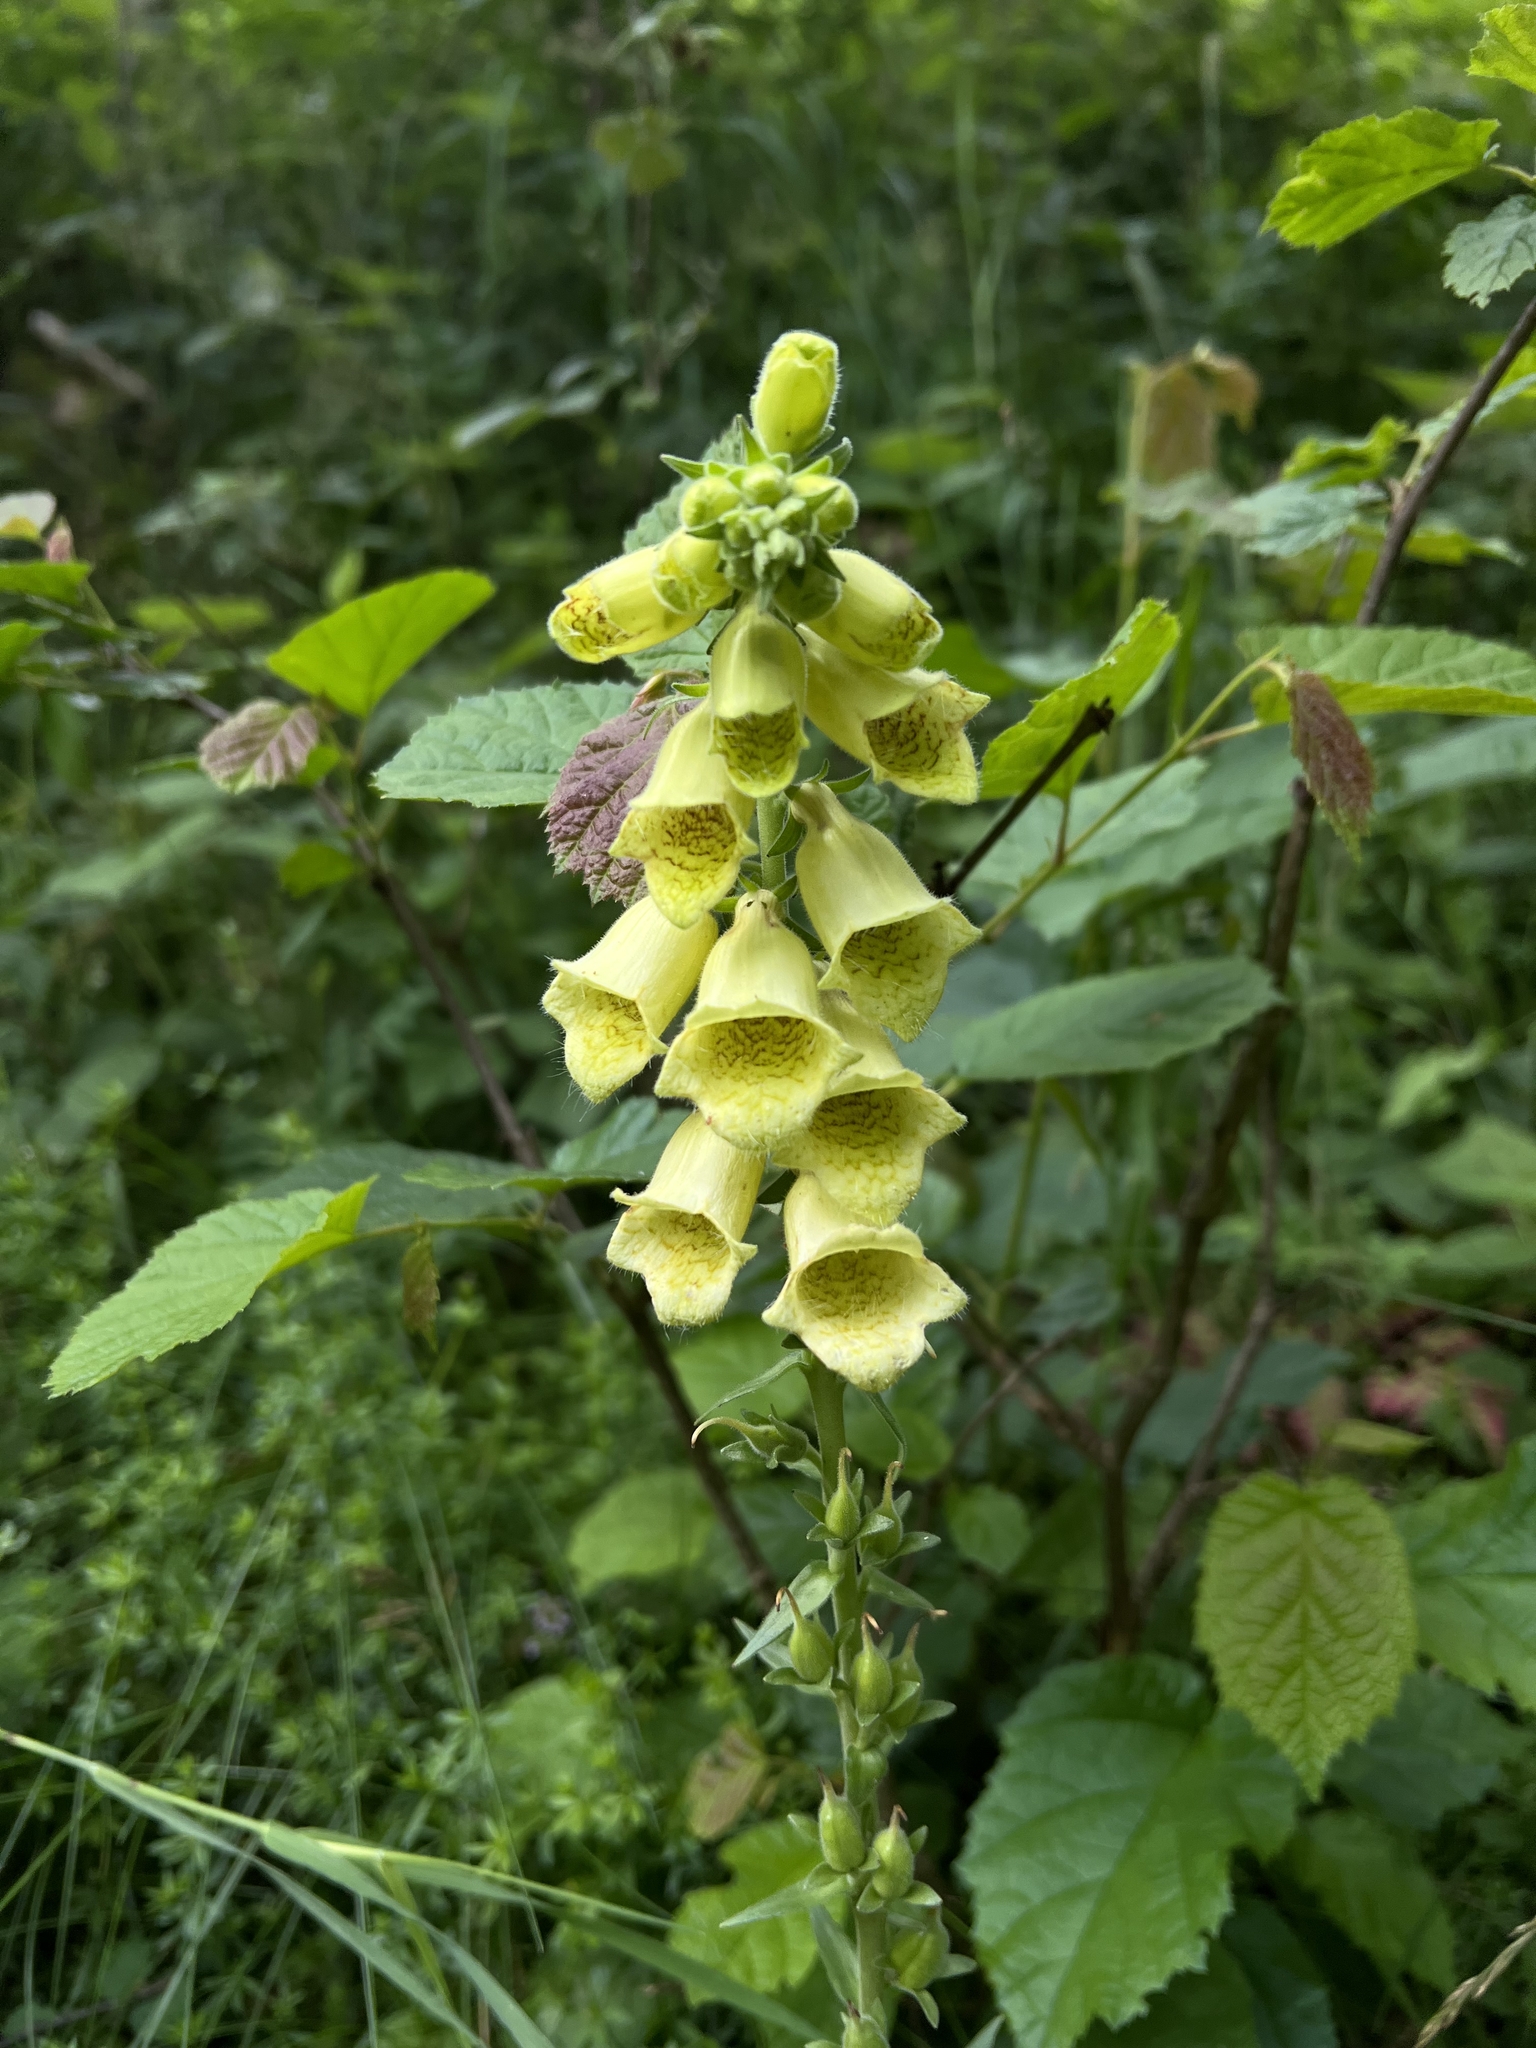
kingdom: Plantae
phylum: Tracheophyta
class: Magnoliopsida
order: Lamiales
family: Plantaginaceae
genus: Digitalis
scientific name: Digitalis grandiflora
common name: Yellow foxglove
